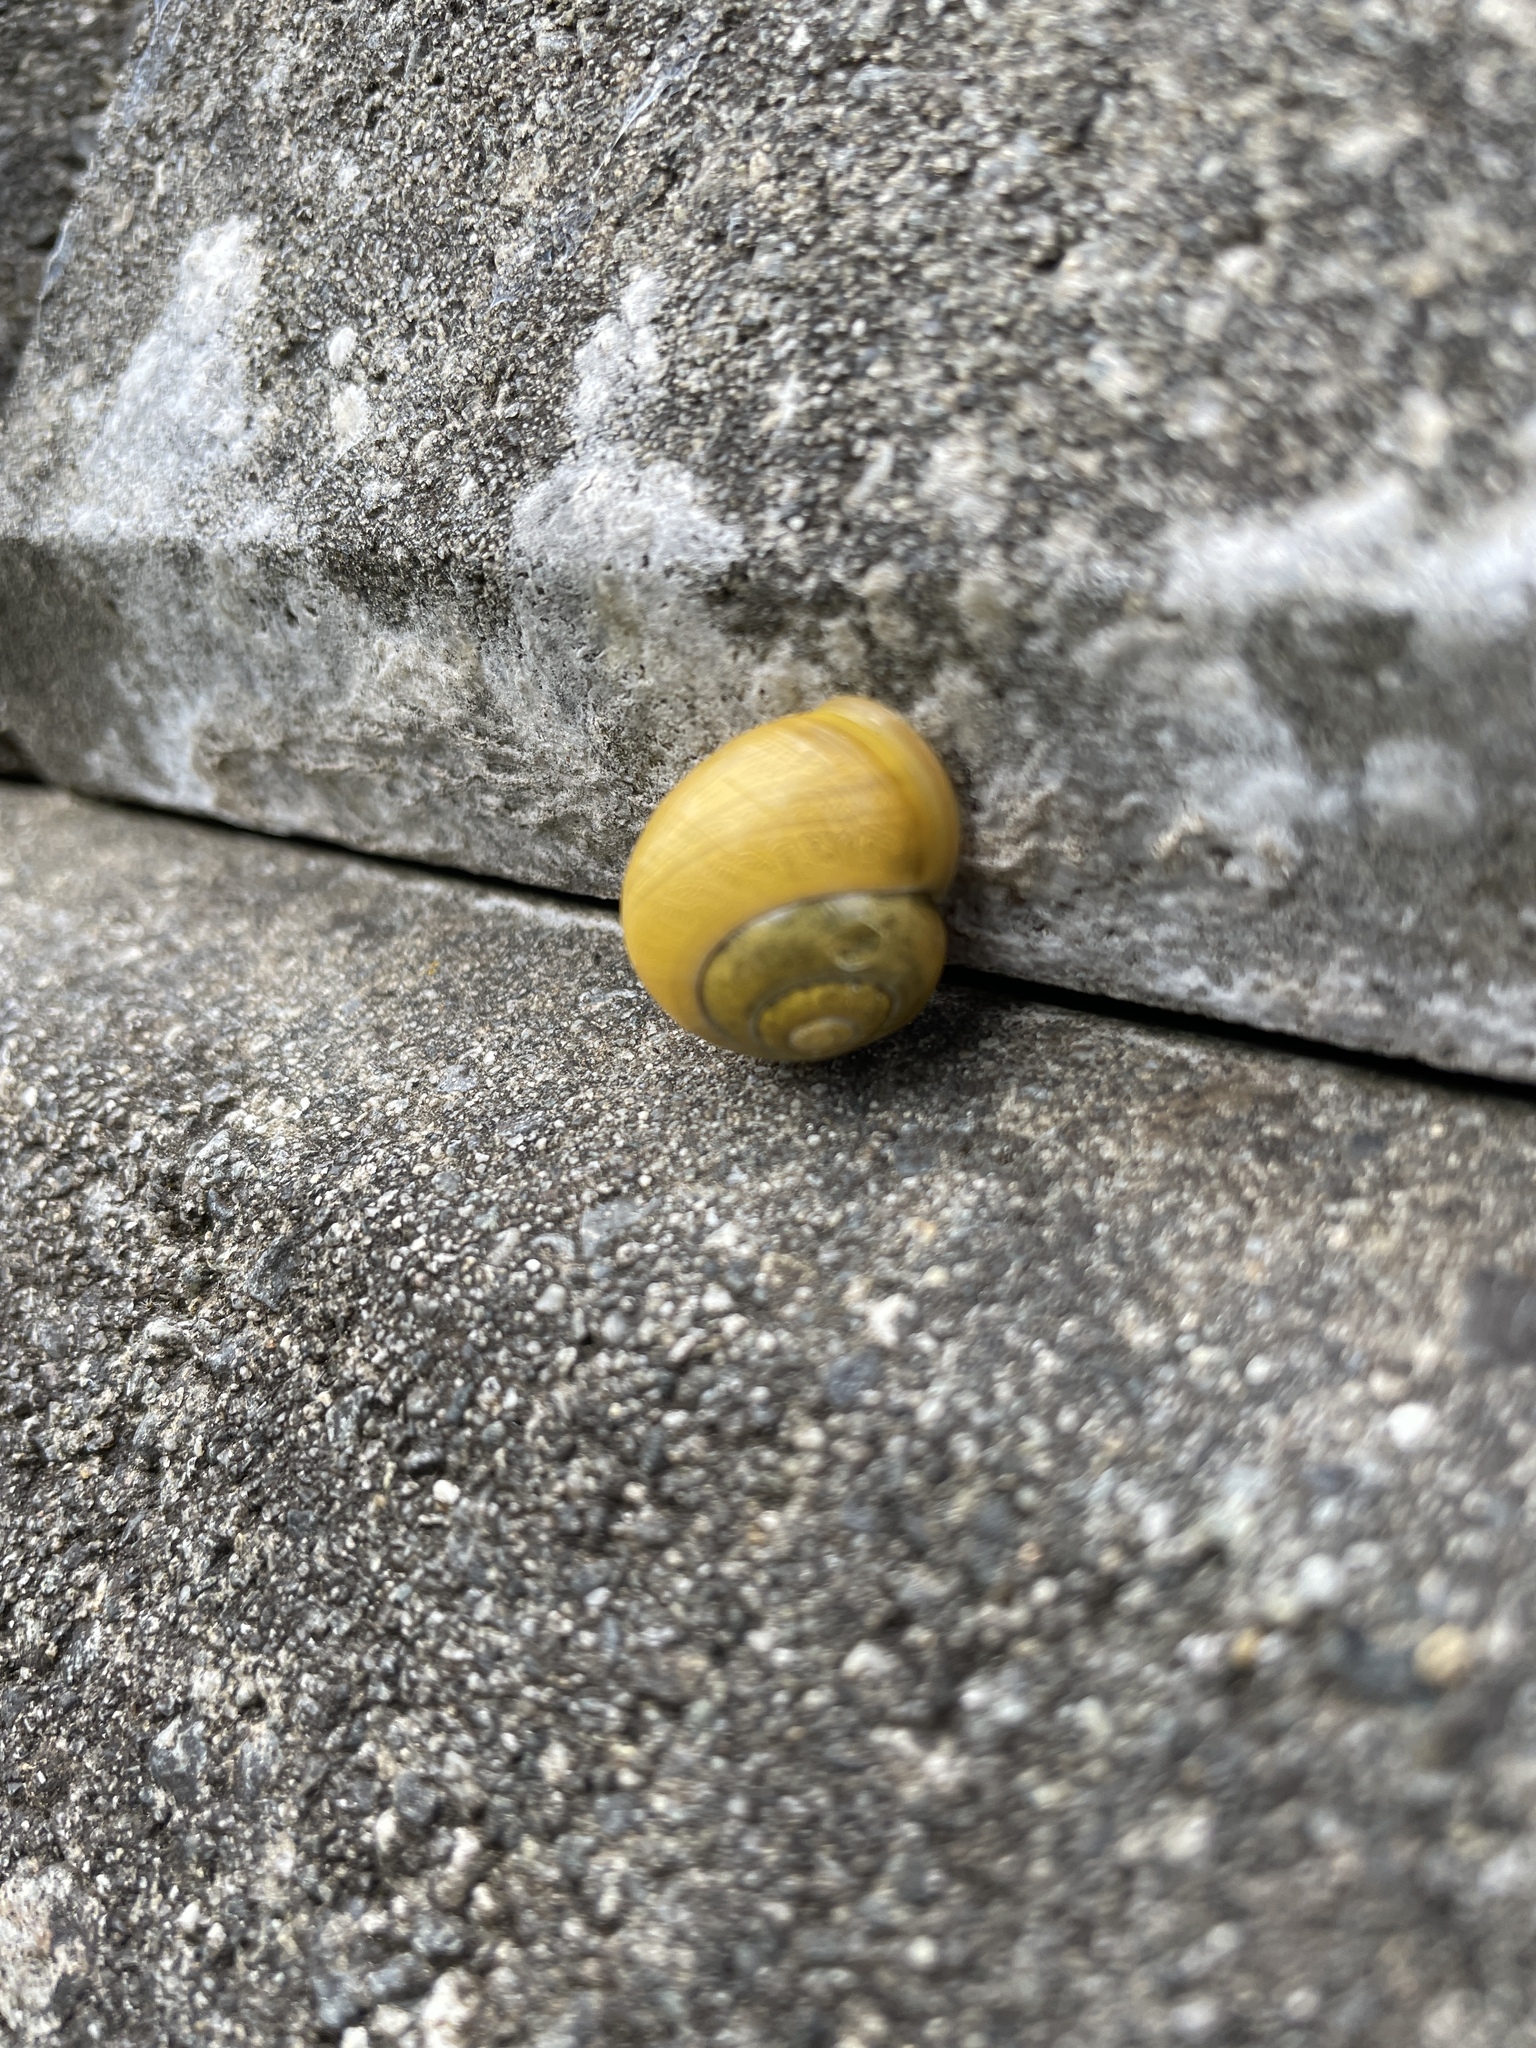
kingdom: Animalia
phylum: Mollusca
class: Gastropoda
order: Stylommatophora
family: Helicidae
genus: Cepaea
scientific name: Cepaea hortensis
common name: White-lip gardensnail
